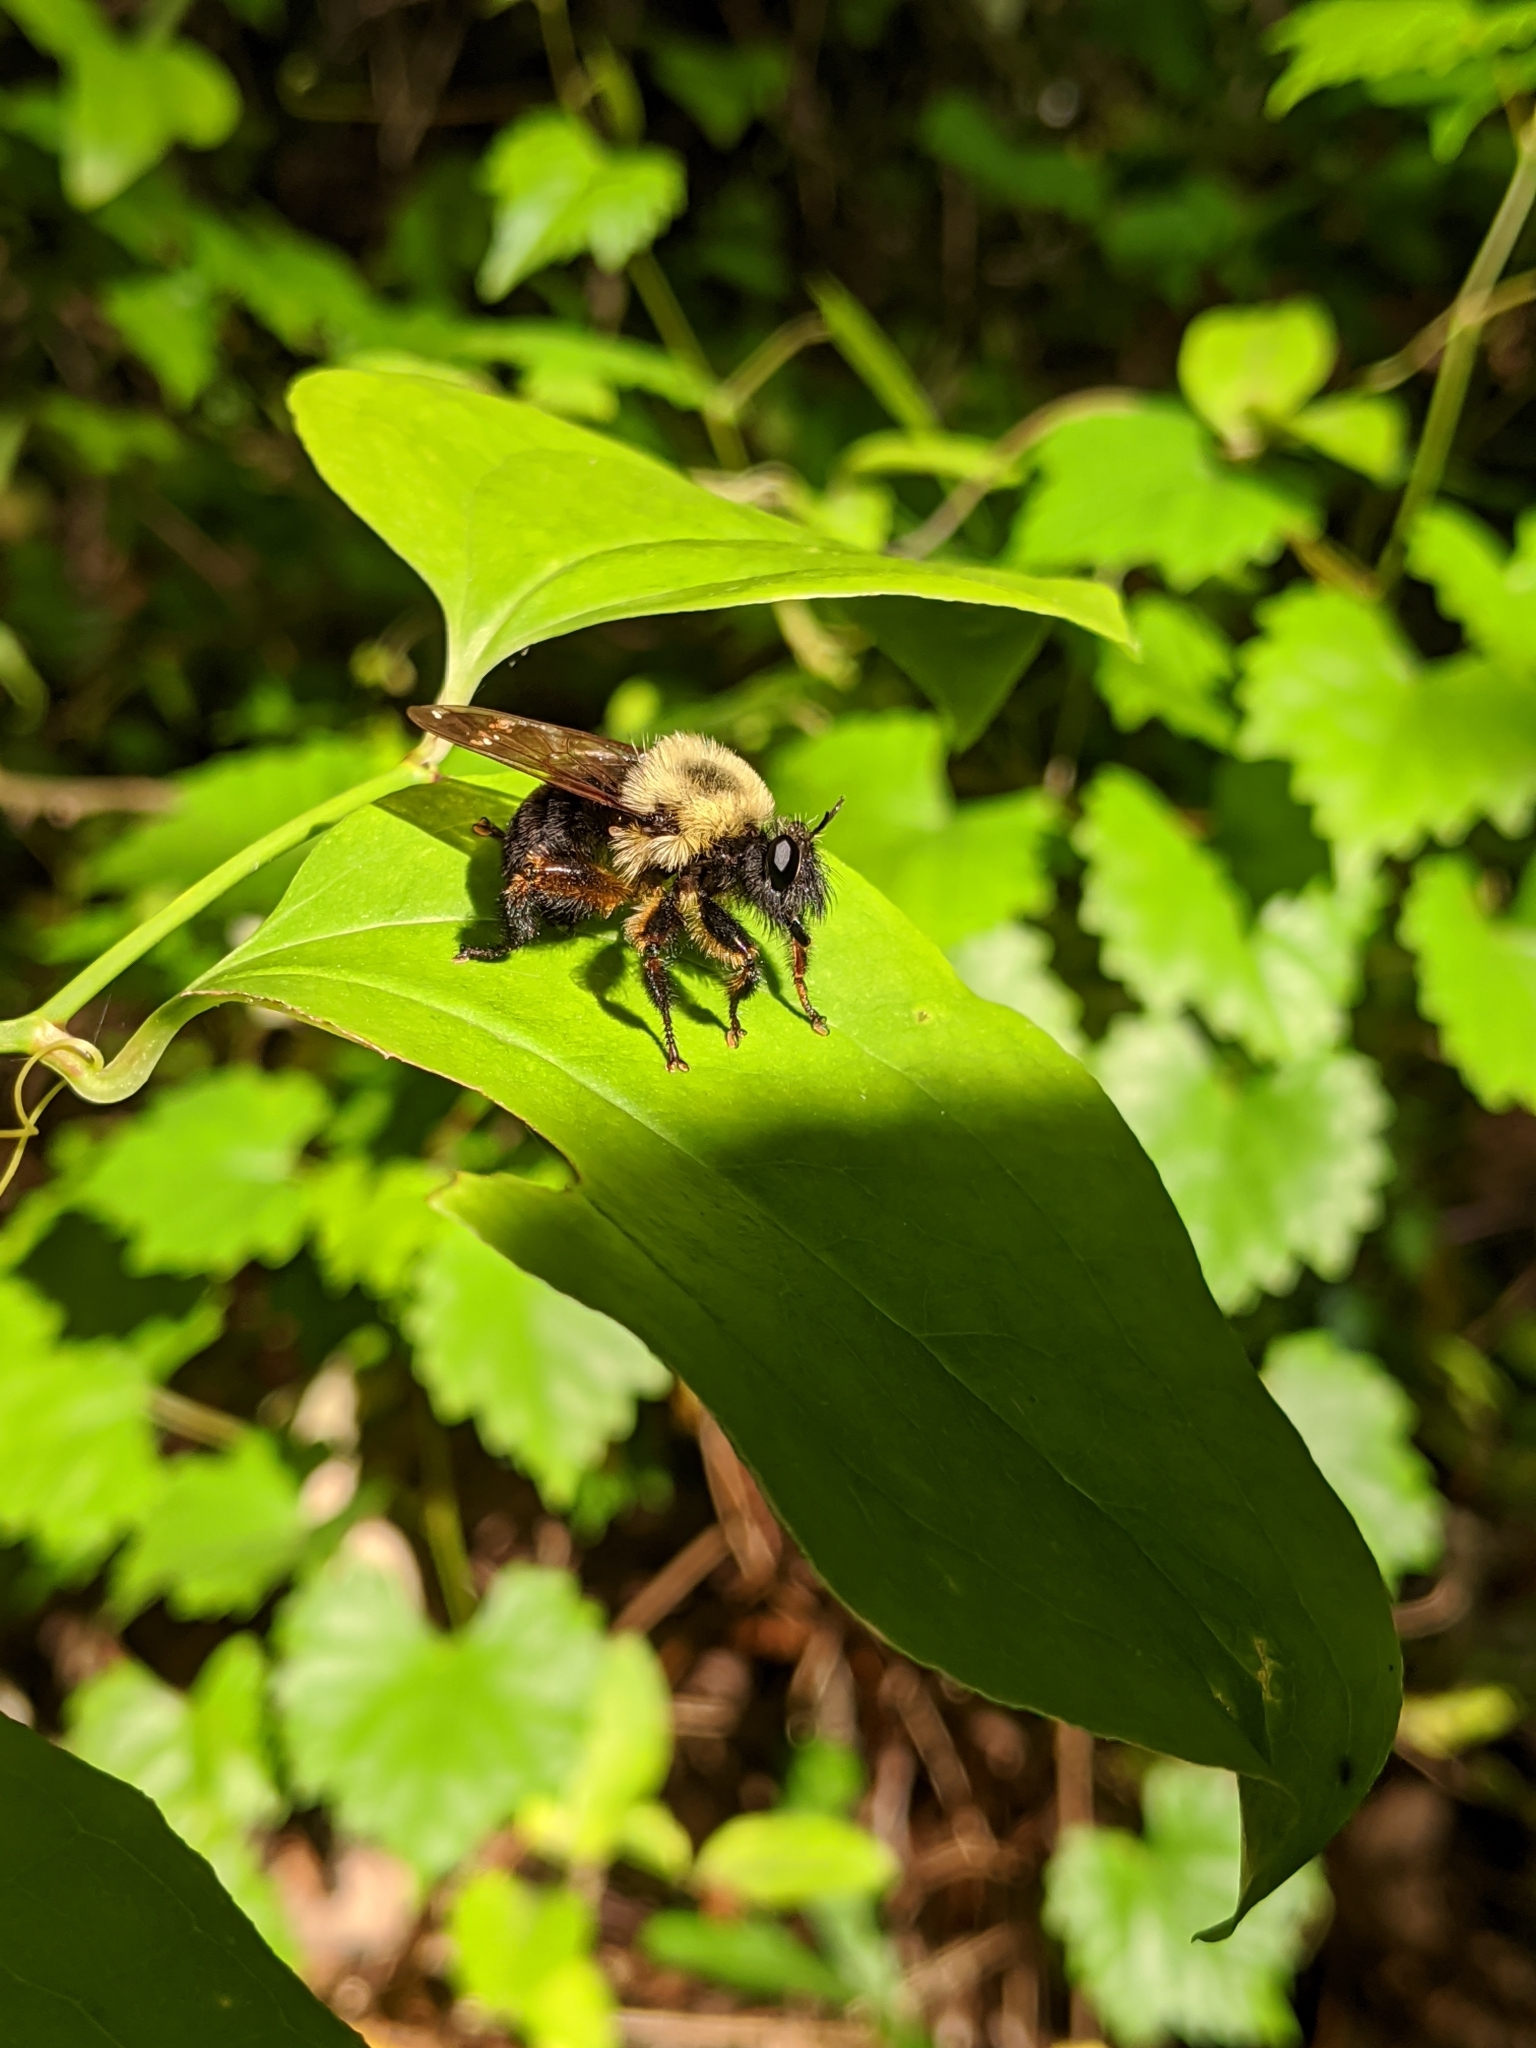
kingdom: Animalia
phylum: Arthropoda
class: Insecta
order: Diptera
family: Asilidae
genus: Laphria
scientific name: Laphria thoracica
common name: Bumble bee mimic robber fly
